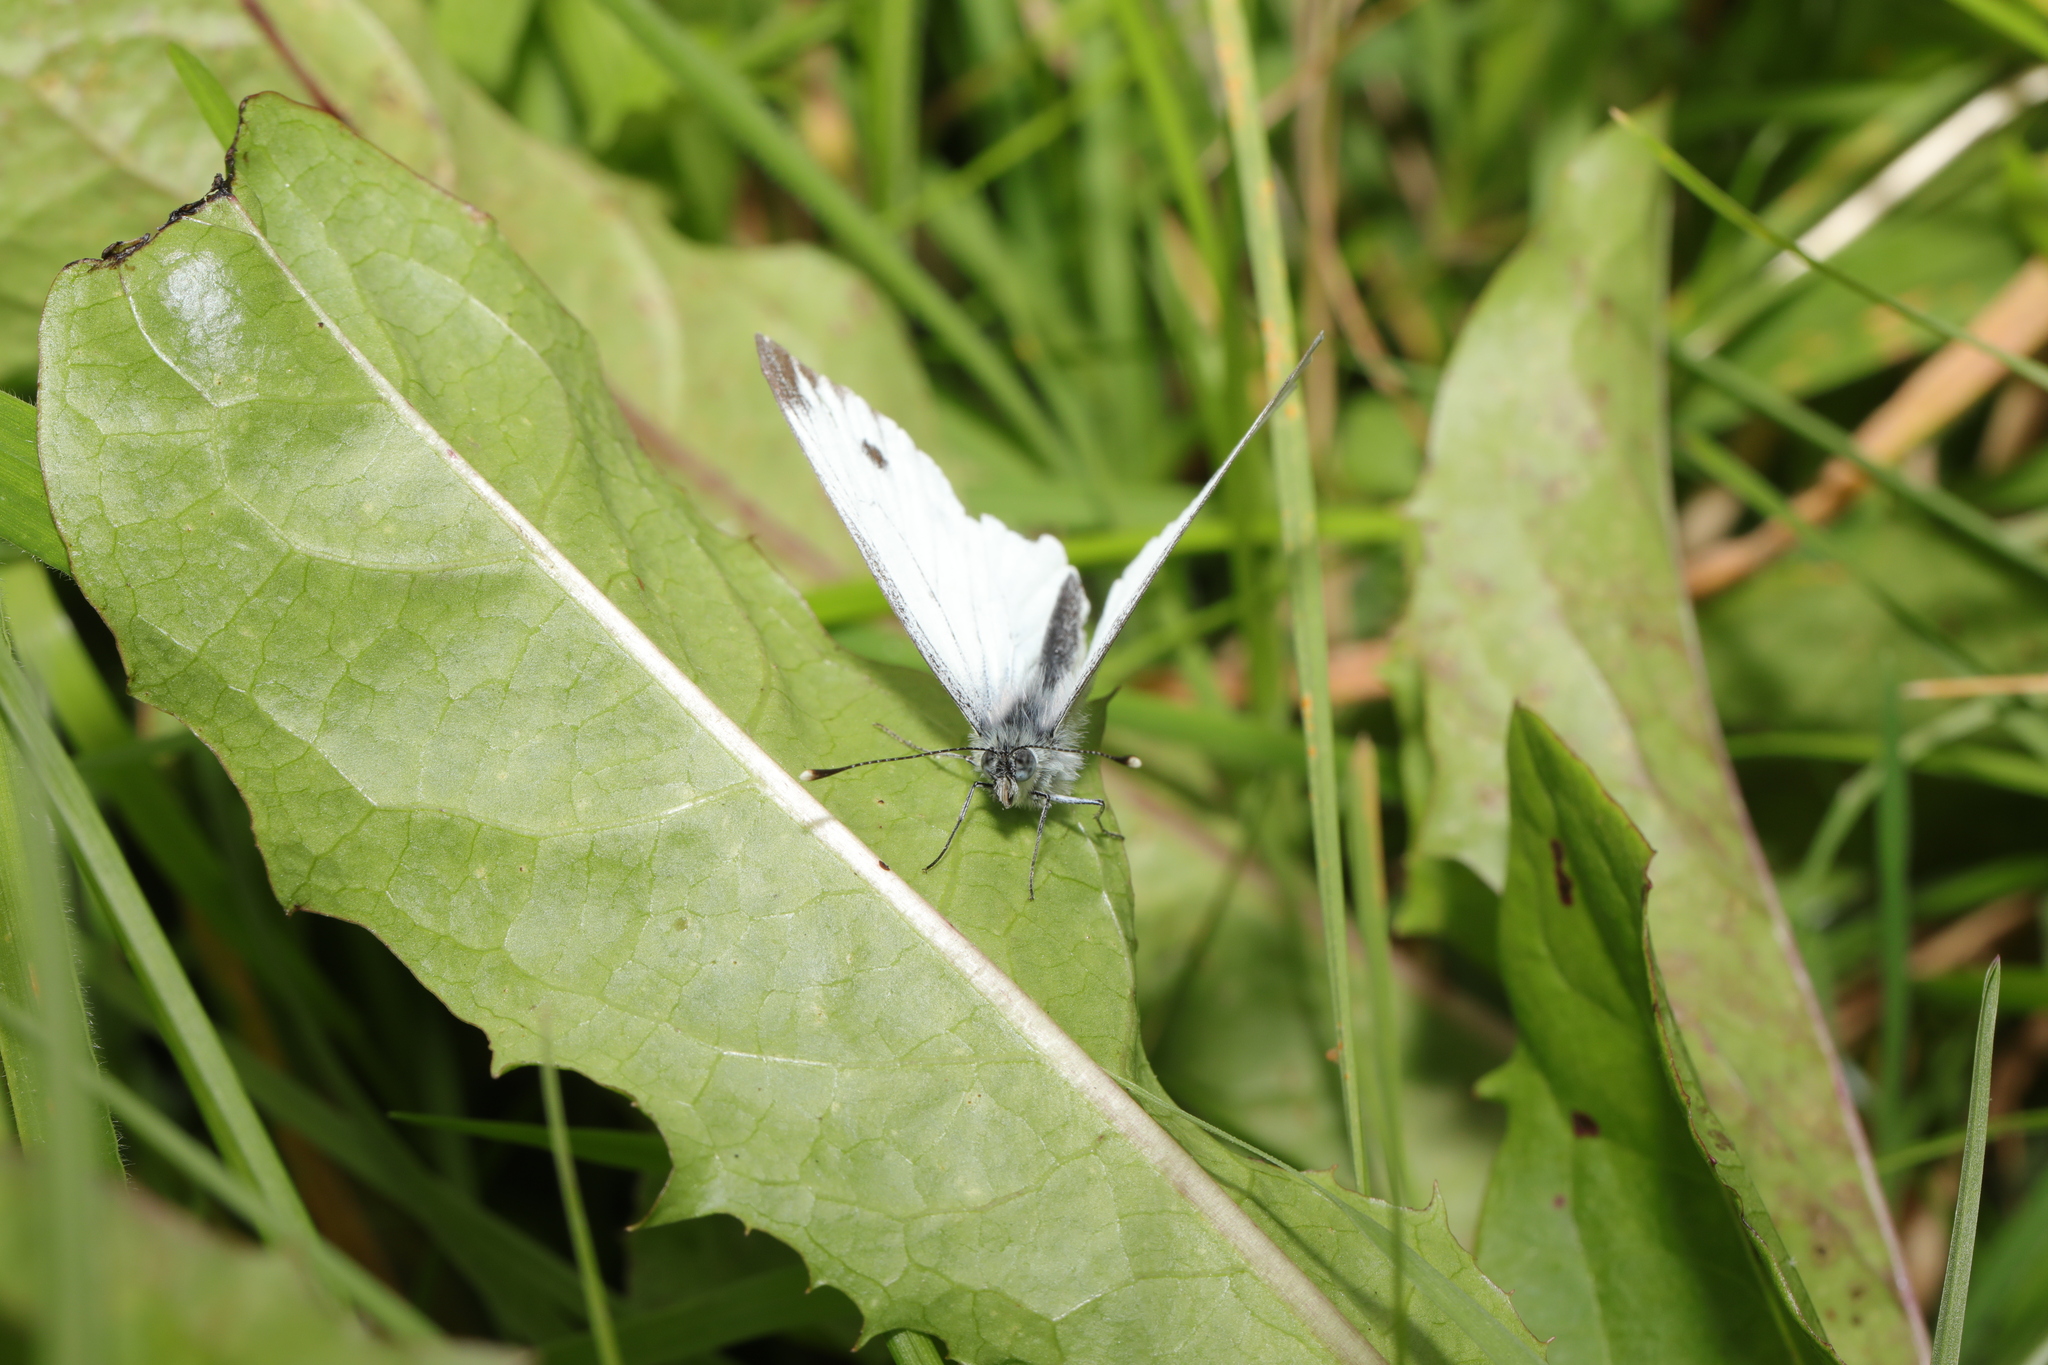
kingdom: Animalia
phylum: Arthropoda
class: Insecta
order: Lepidoptera
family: Pieridae
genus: Pieris
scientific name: Pieris napi
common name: Green-veined white
